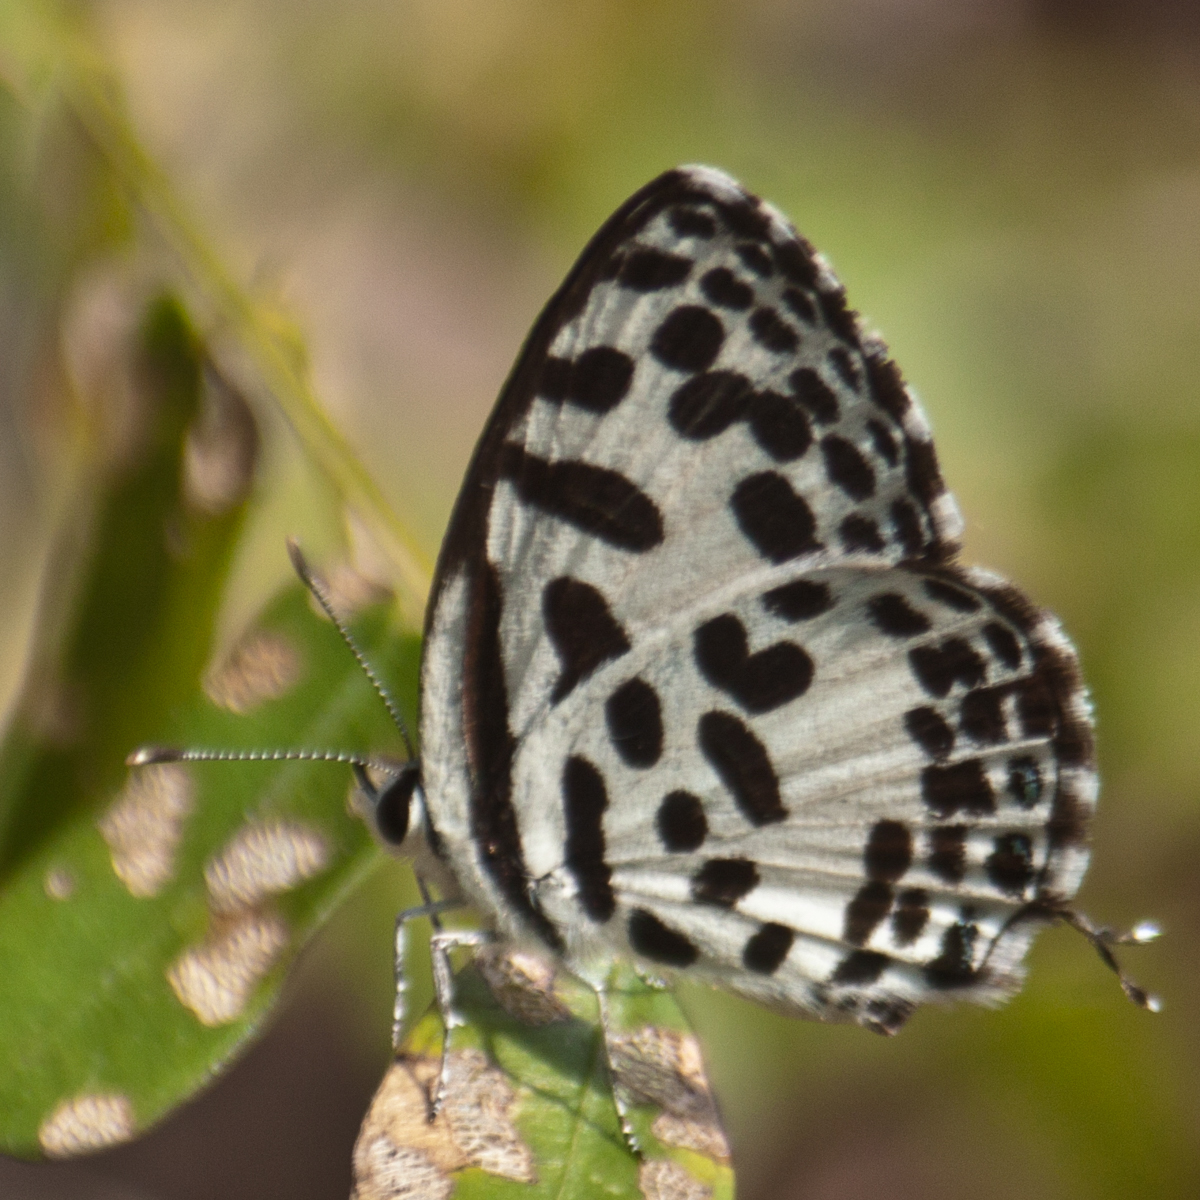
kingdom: Animalia
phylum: Arthropoda
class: Insecta
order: Lepidoptera
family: Lycaenidae
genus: Castalius
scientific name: Castalius rosimon
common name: Common pierrot
